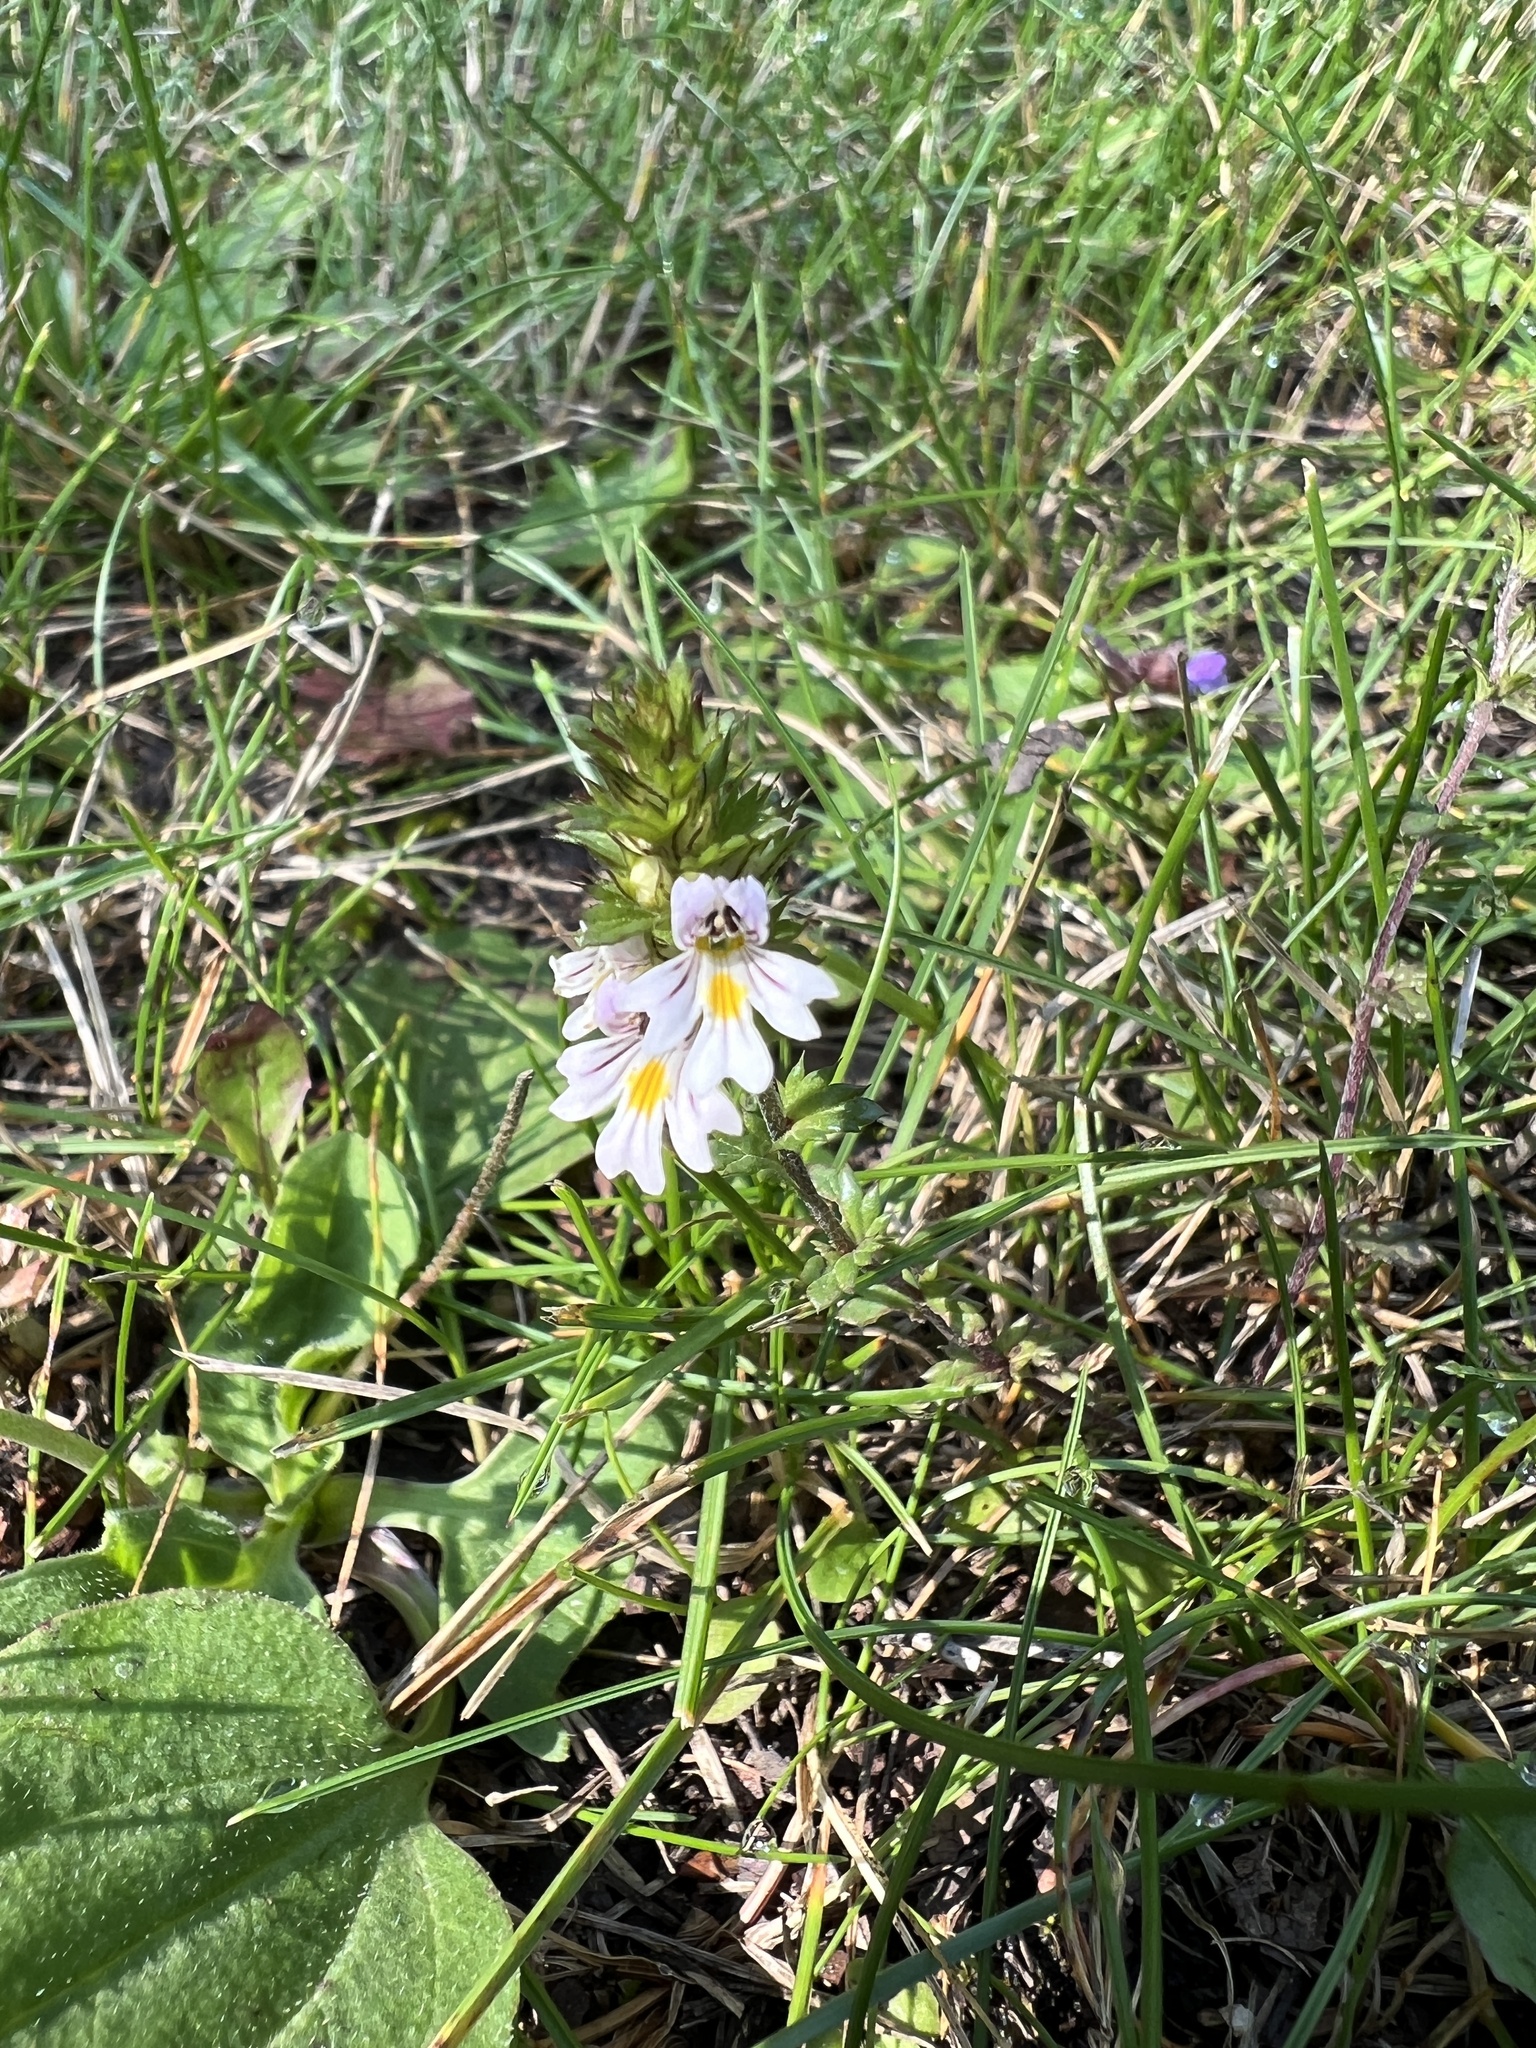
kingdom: Plantae
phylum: Tracheophyta
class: Magnoliopsida
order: Lamiales
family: Orobanchaceae
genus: Euphrasia
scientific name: Euphrasia nemorosa
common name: Common eyebright
